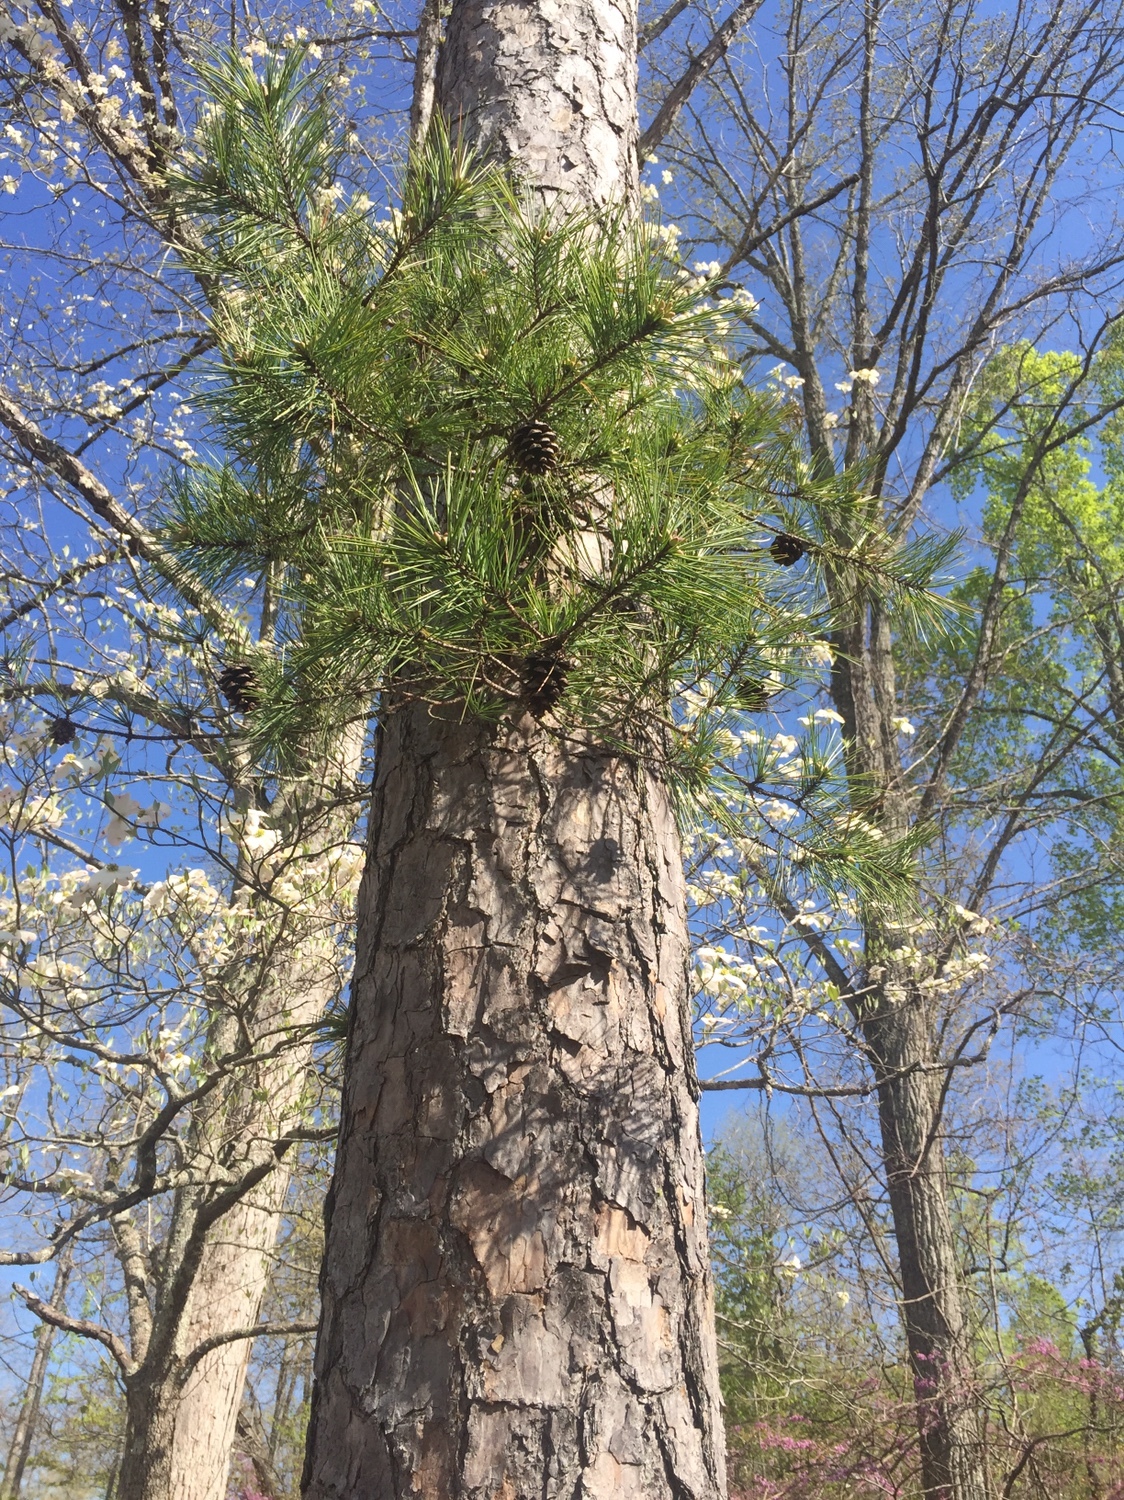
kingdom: Plantae
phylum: Tracheophyta
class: Pinopsida
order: Pinales
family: Pinaceae
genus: Pinus
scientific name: Pinus echinata
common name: Shortleaf pine
